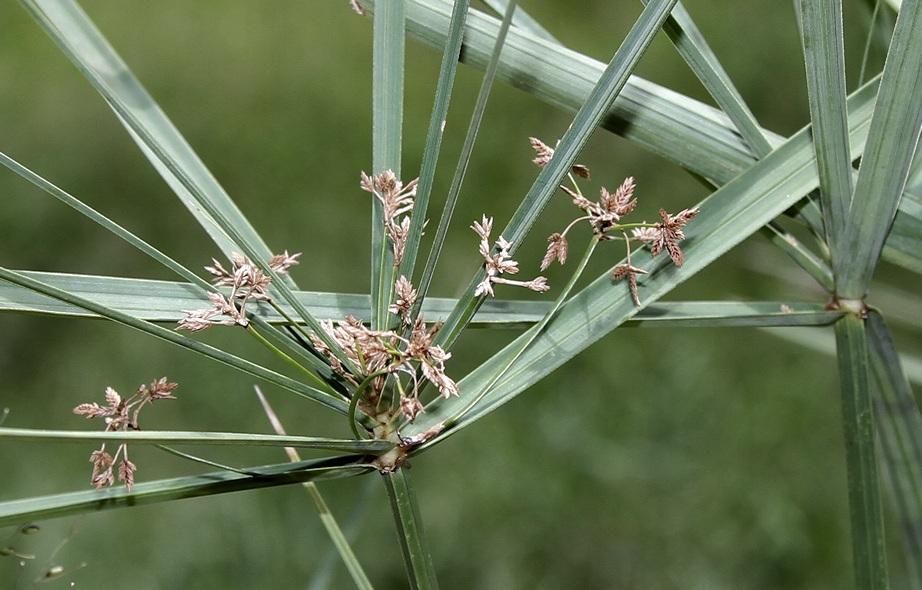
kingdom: Plantae
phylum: Tracheophyta
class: Liliopsida
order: Poales
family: Cyperaceae
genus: Cyperus
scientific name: Cyperus sexangularis
